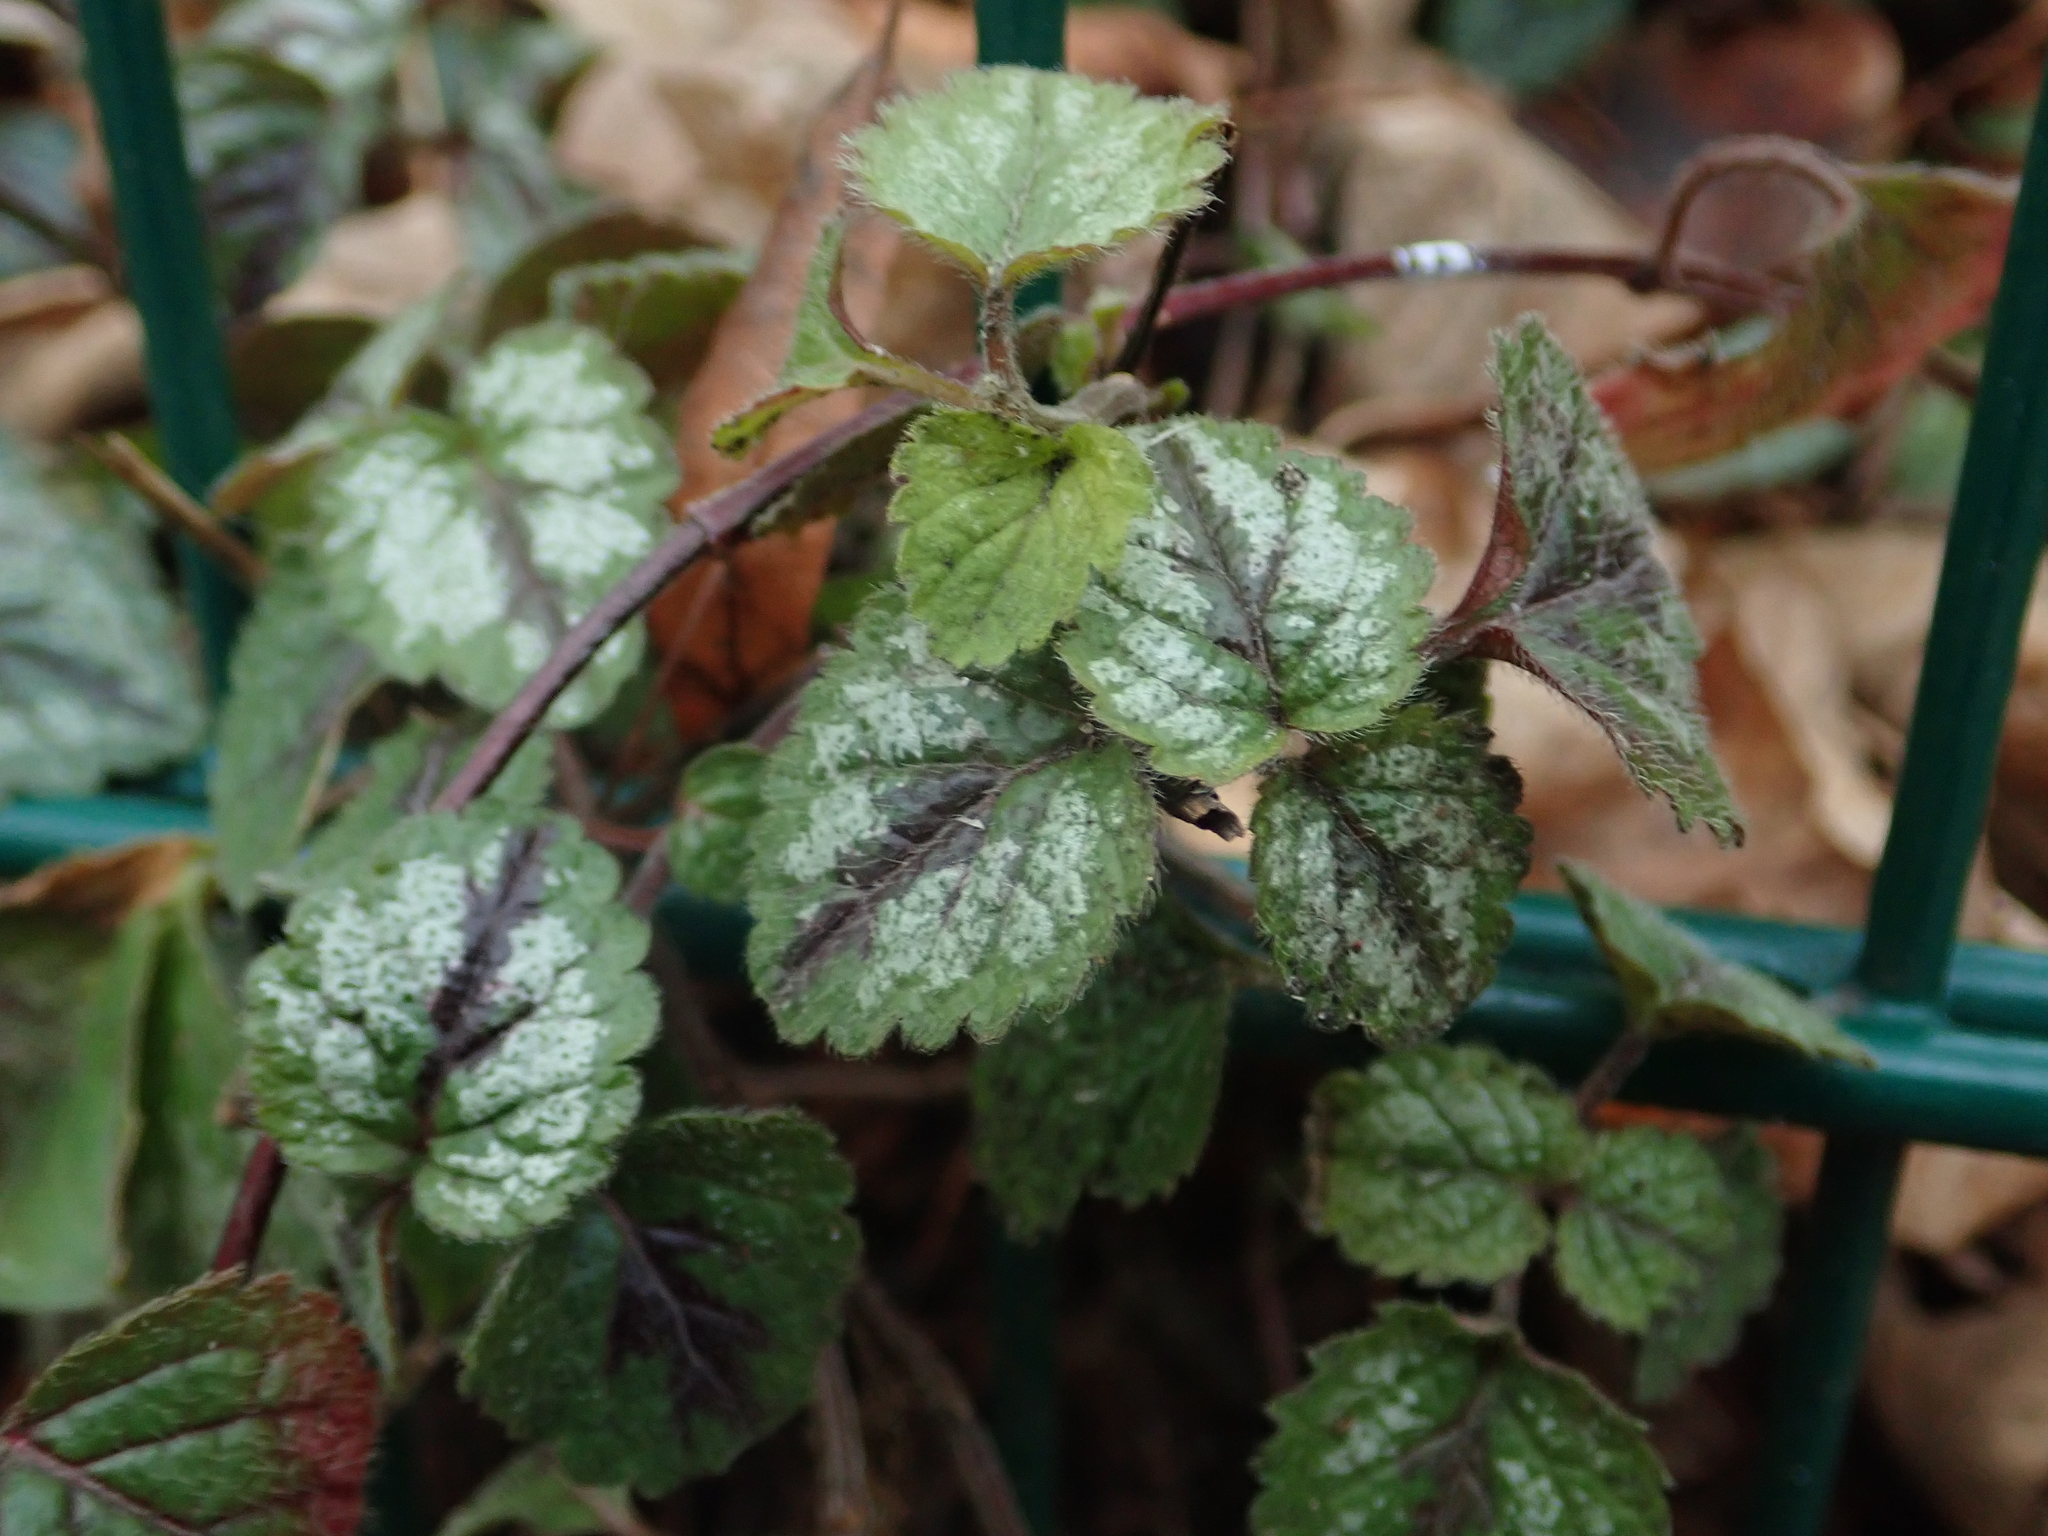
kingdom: Plantae
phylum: Tracheophyta
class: Magnoliopsida
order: Lamiales
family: Lamiaceae
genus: Lamium
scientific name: Lamium galeobdolon
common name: Yellow archangel
